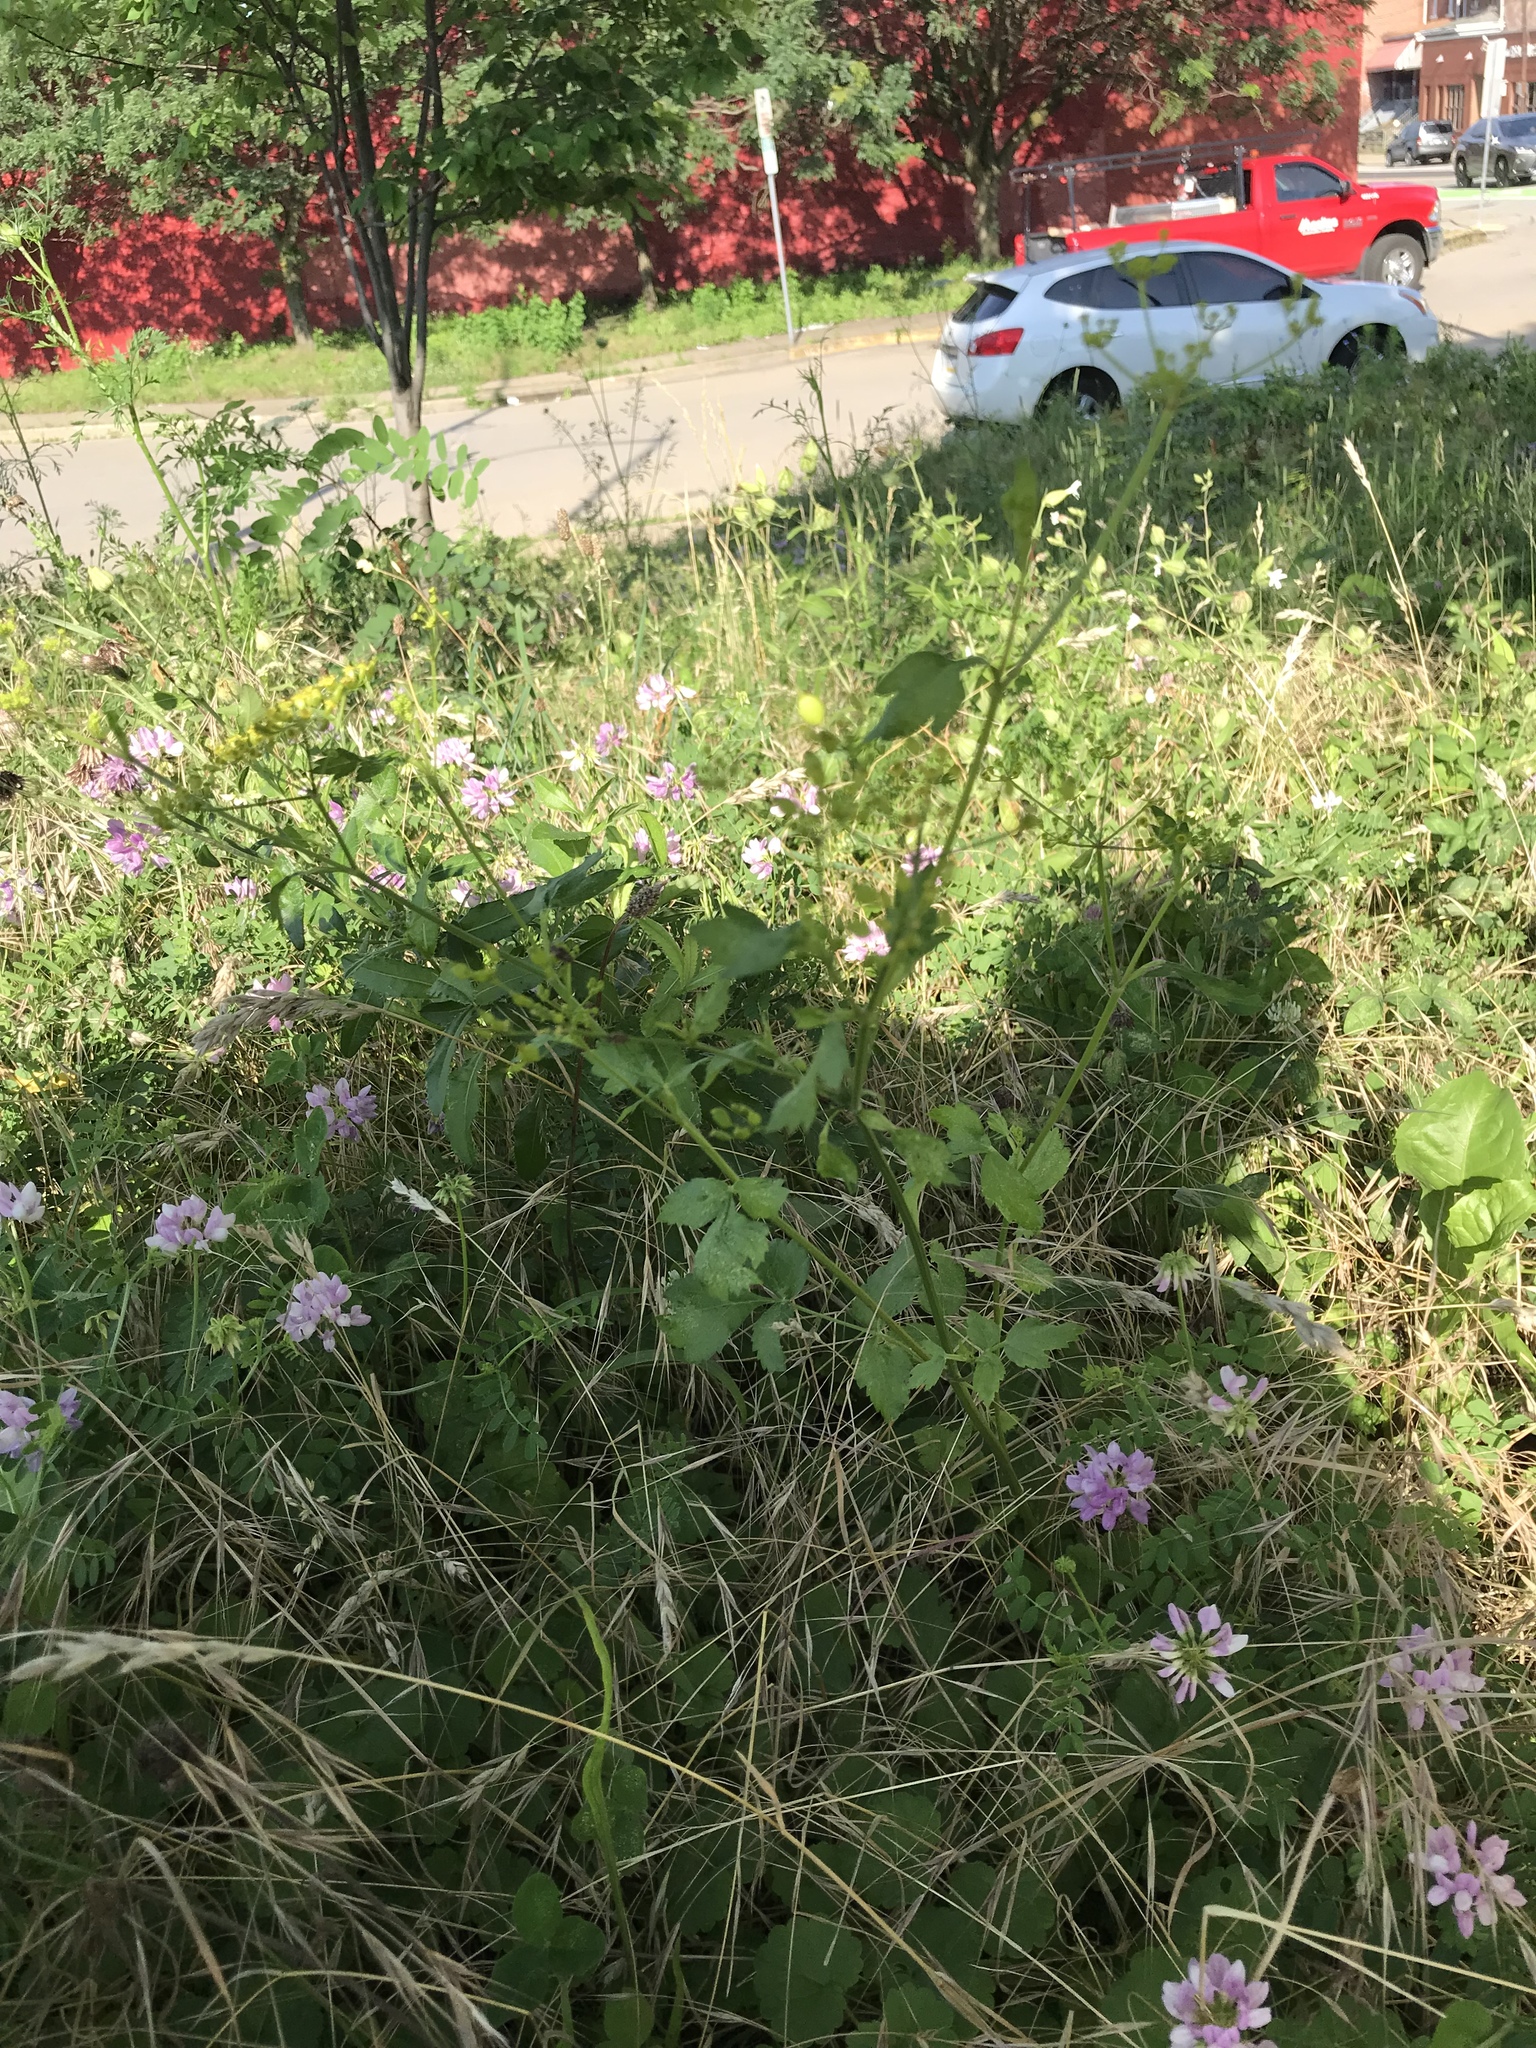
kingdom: Plantae
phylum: Tracheophyta
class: Magnoliopsida
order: Apiales
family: Apiaceae
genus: Pastinaca
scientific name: Pastinaca sativa
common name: Wild parsnip
